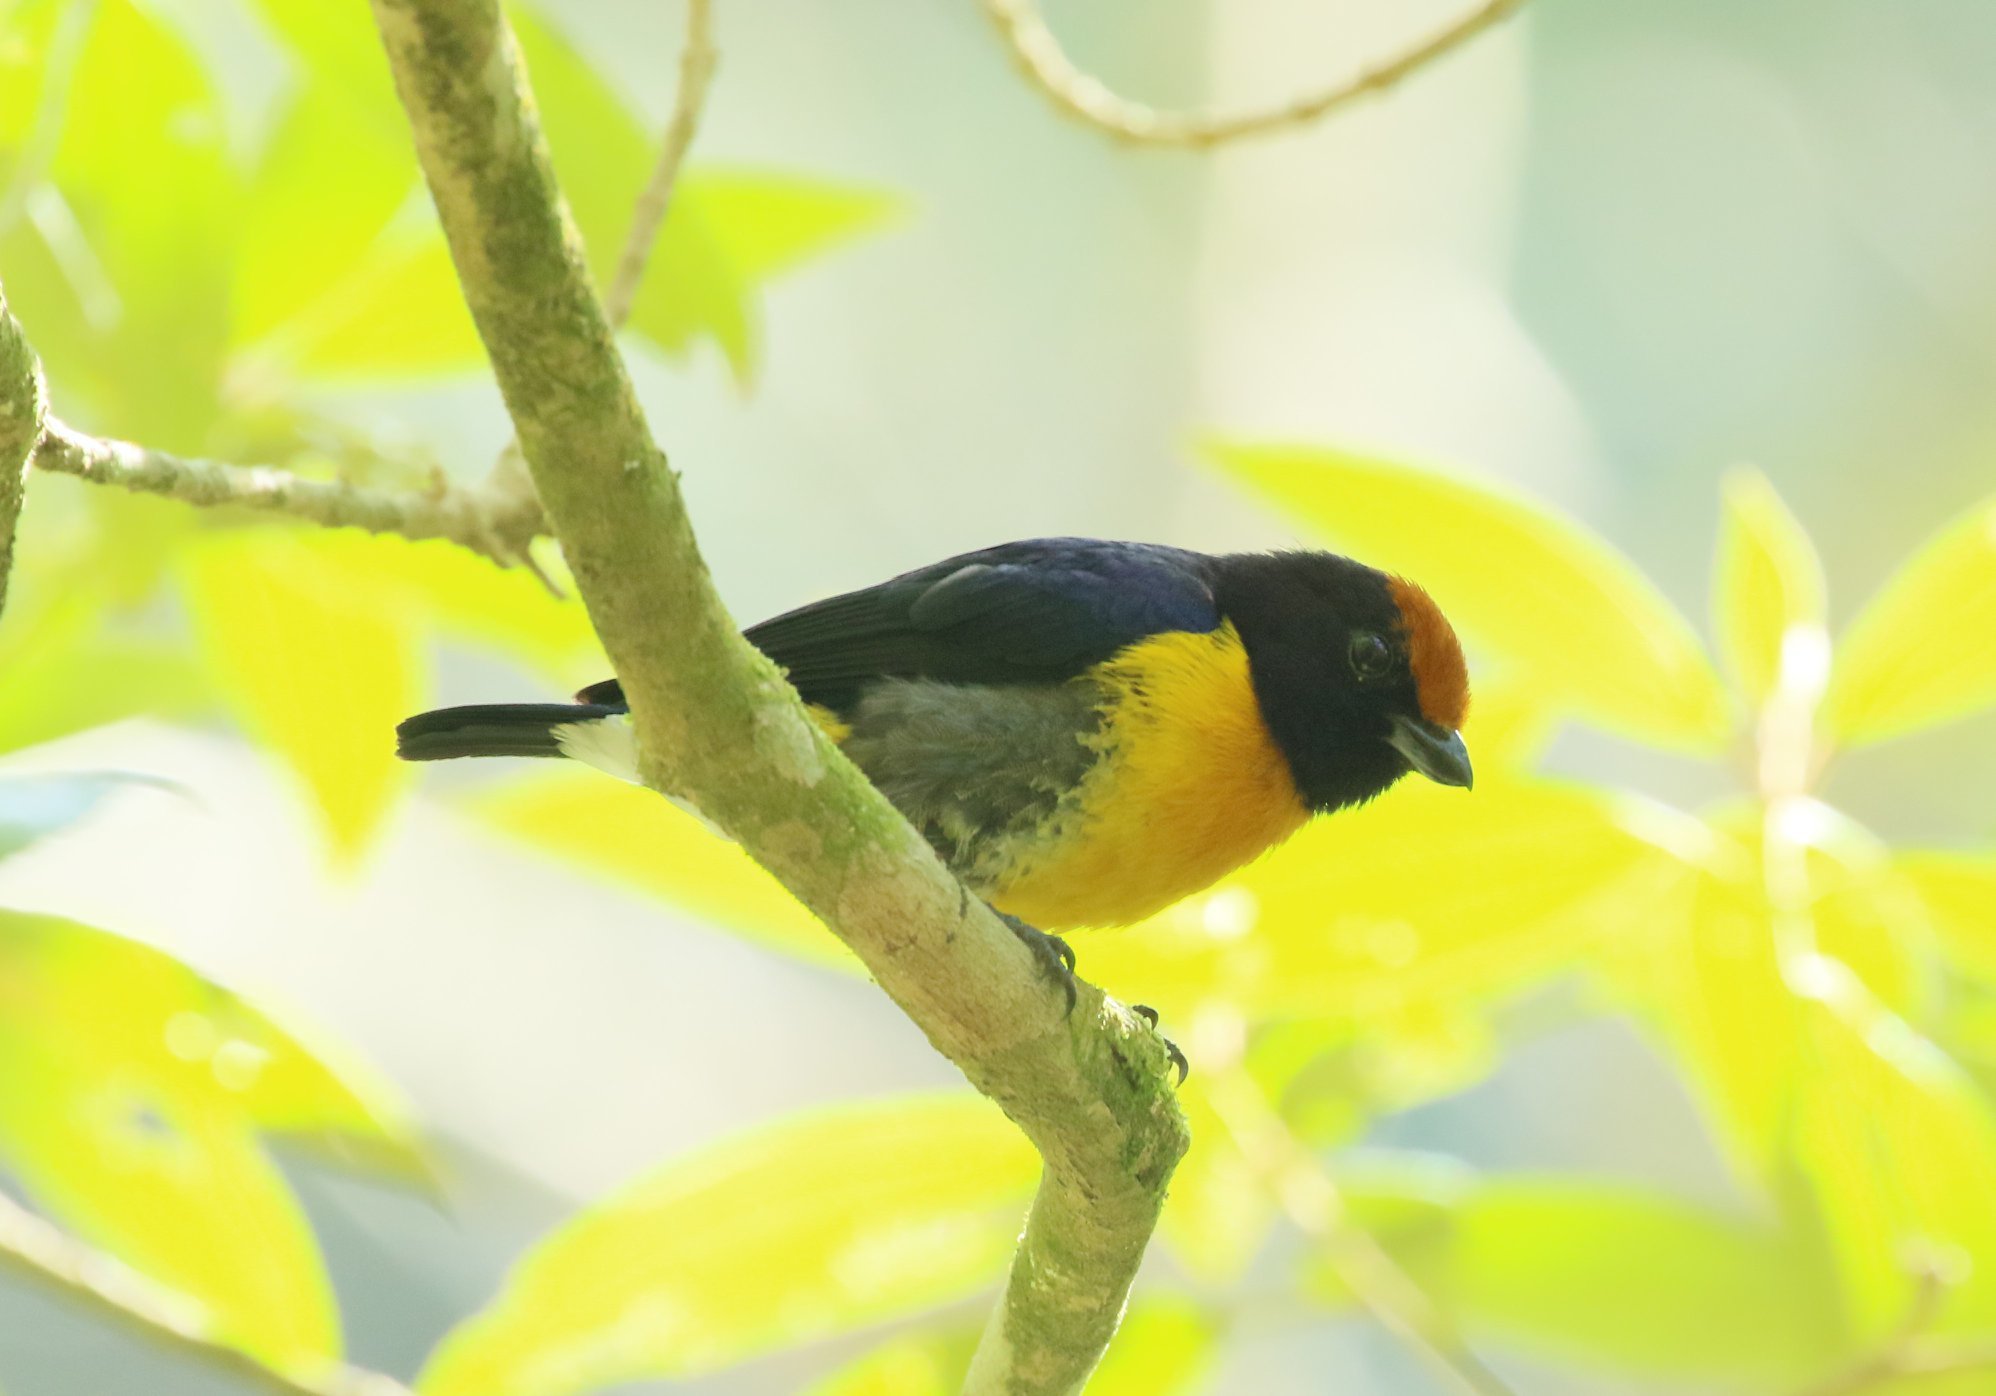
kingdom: Animalia
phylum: Chordata
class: Aves
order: Passeriformes
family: Fringillidae
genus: Euphonia
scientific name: Euphonia anneae
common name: Tawny-capped euphonia
